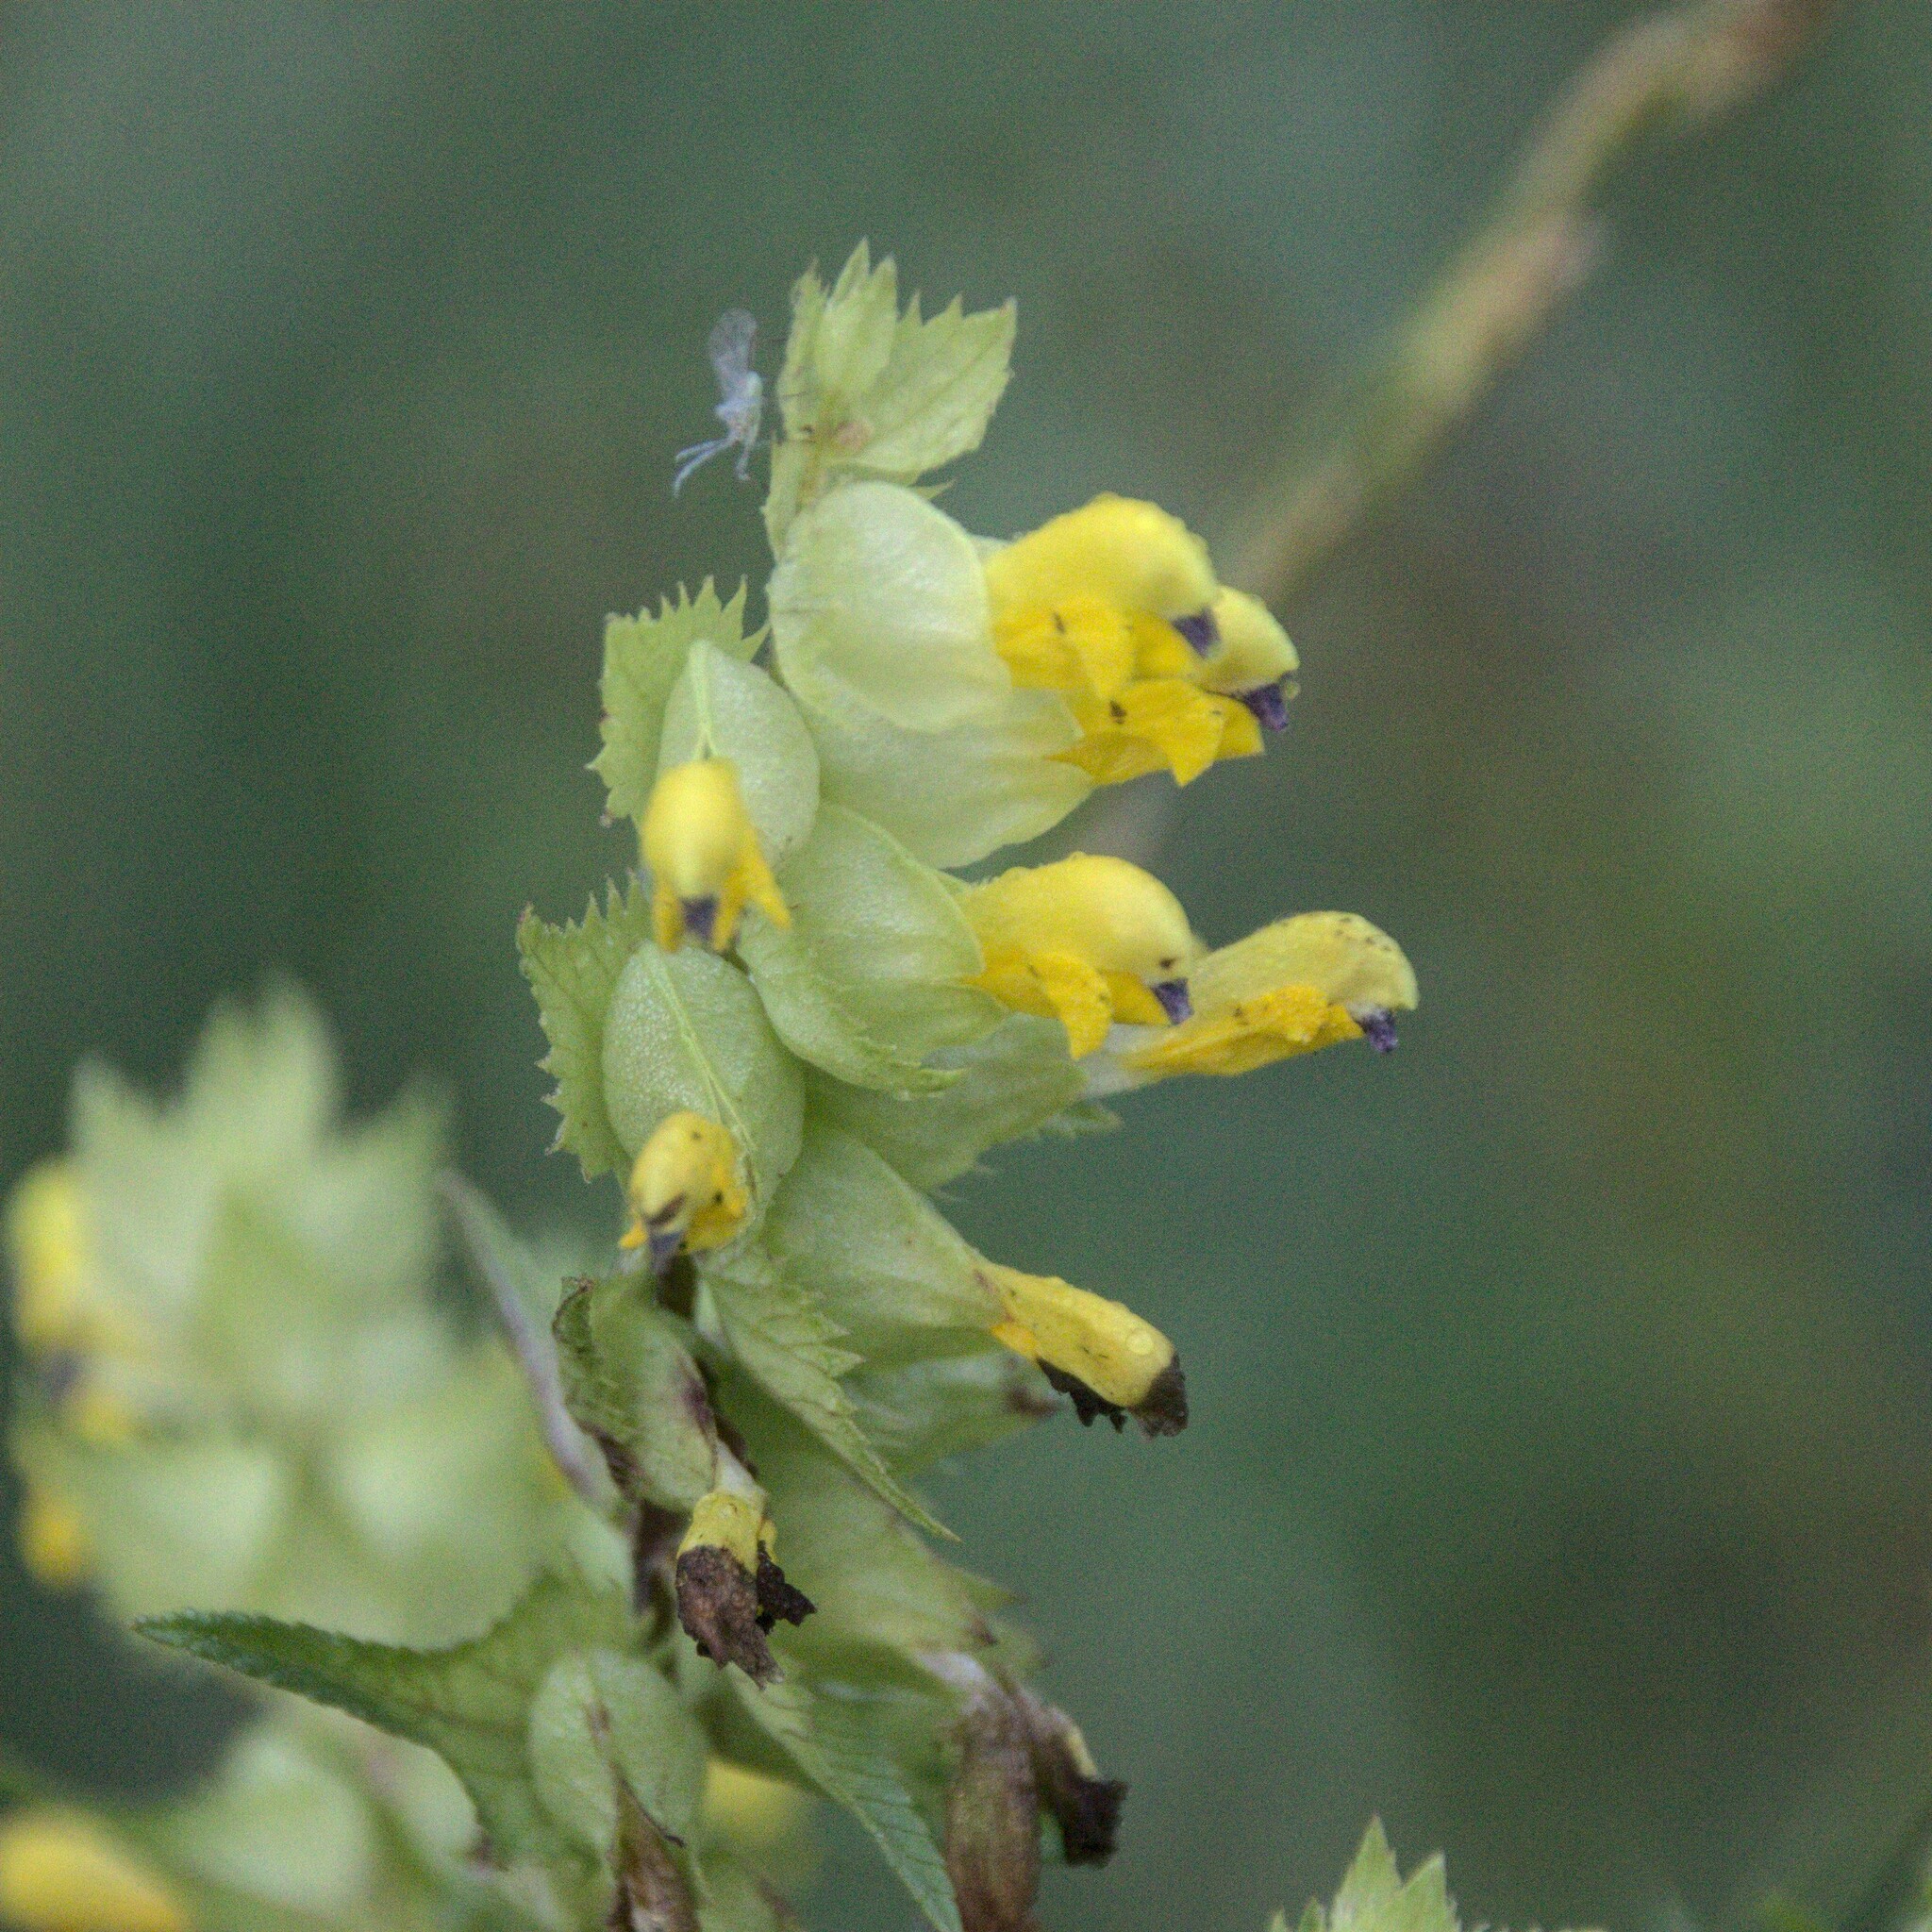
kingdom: Plantae
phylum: Tracheophyta
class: Magnoliopsida
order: Lamiales
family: Orobanchaceae
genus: Rhinanthus
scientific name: Rhinanthus serotinus
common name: Late-flowering yellow rattle
